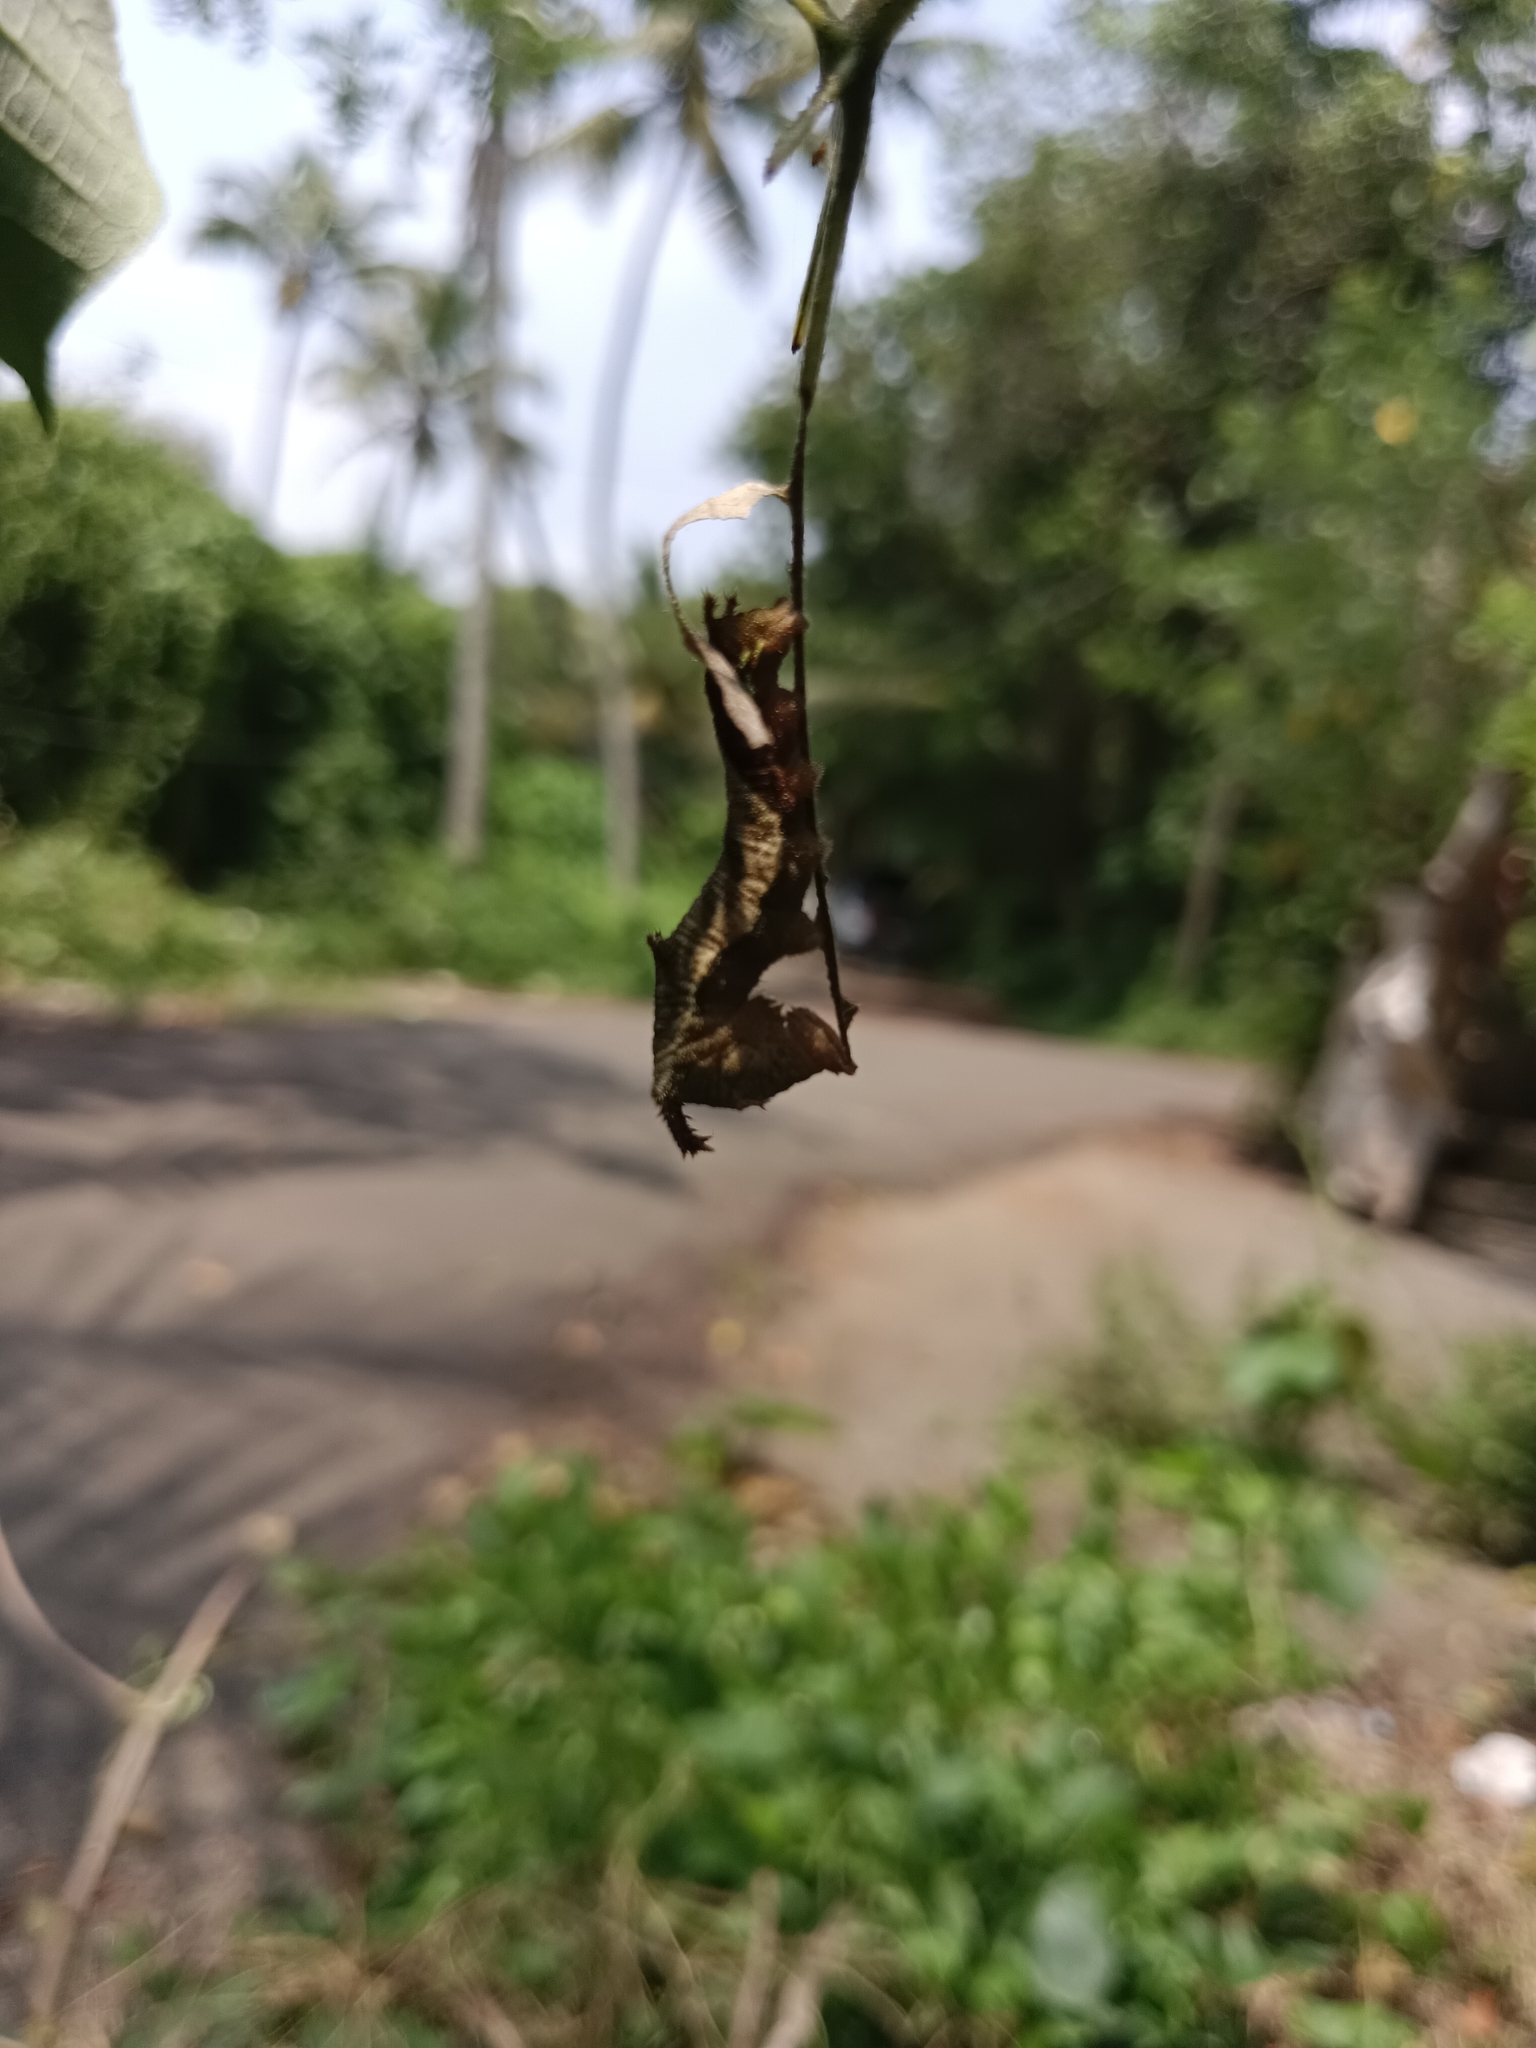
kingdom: Animalia
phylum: Arthropoda
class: Insecta
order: Lepidoptera
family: Nymphalidae
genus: Neptis
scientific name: Neptis jumbah
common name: Chestnut-streaked sailer
